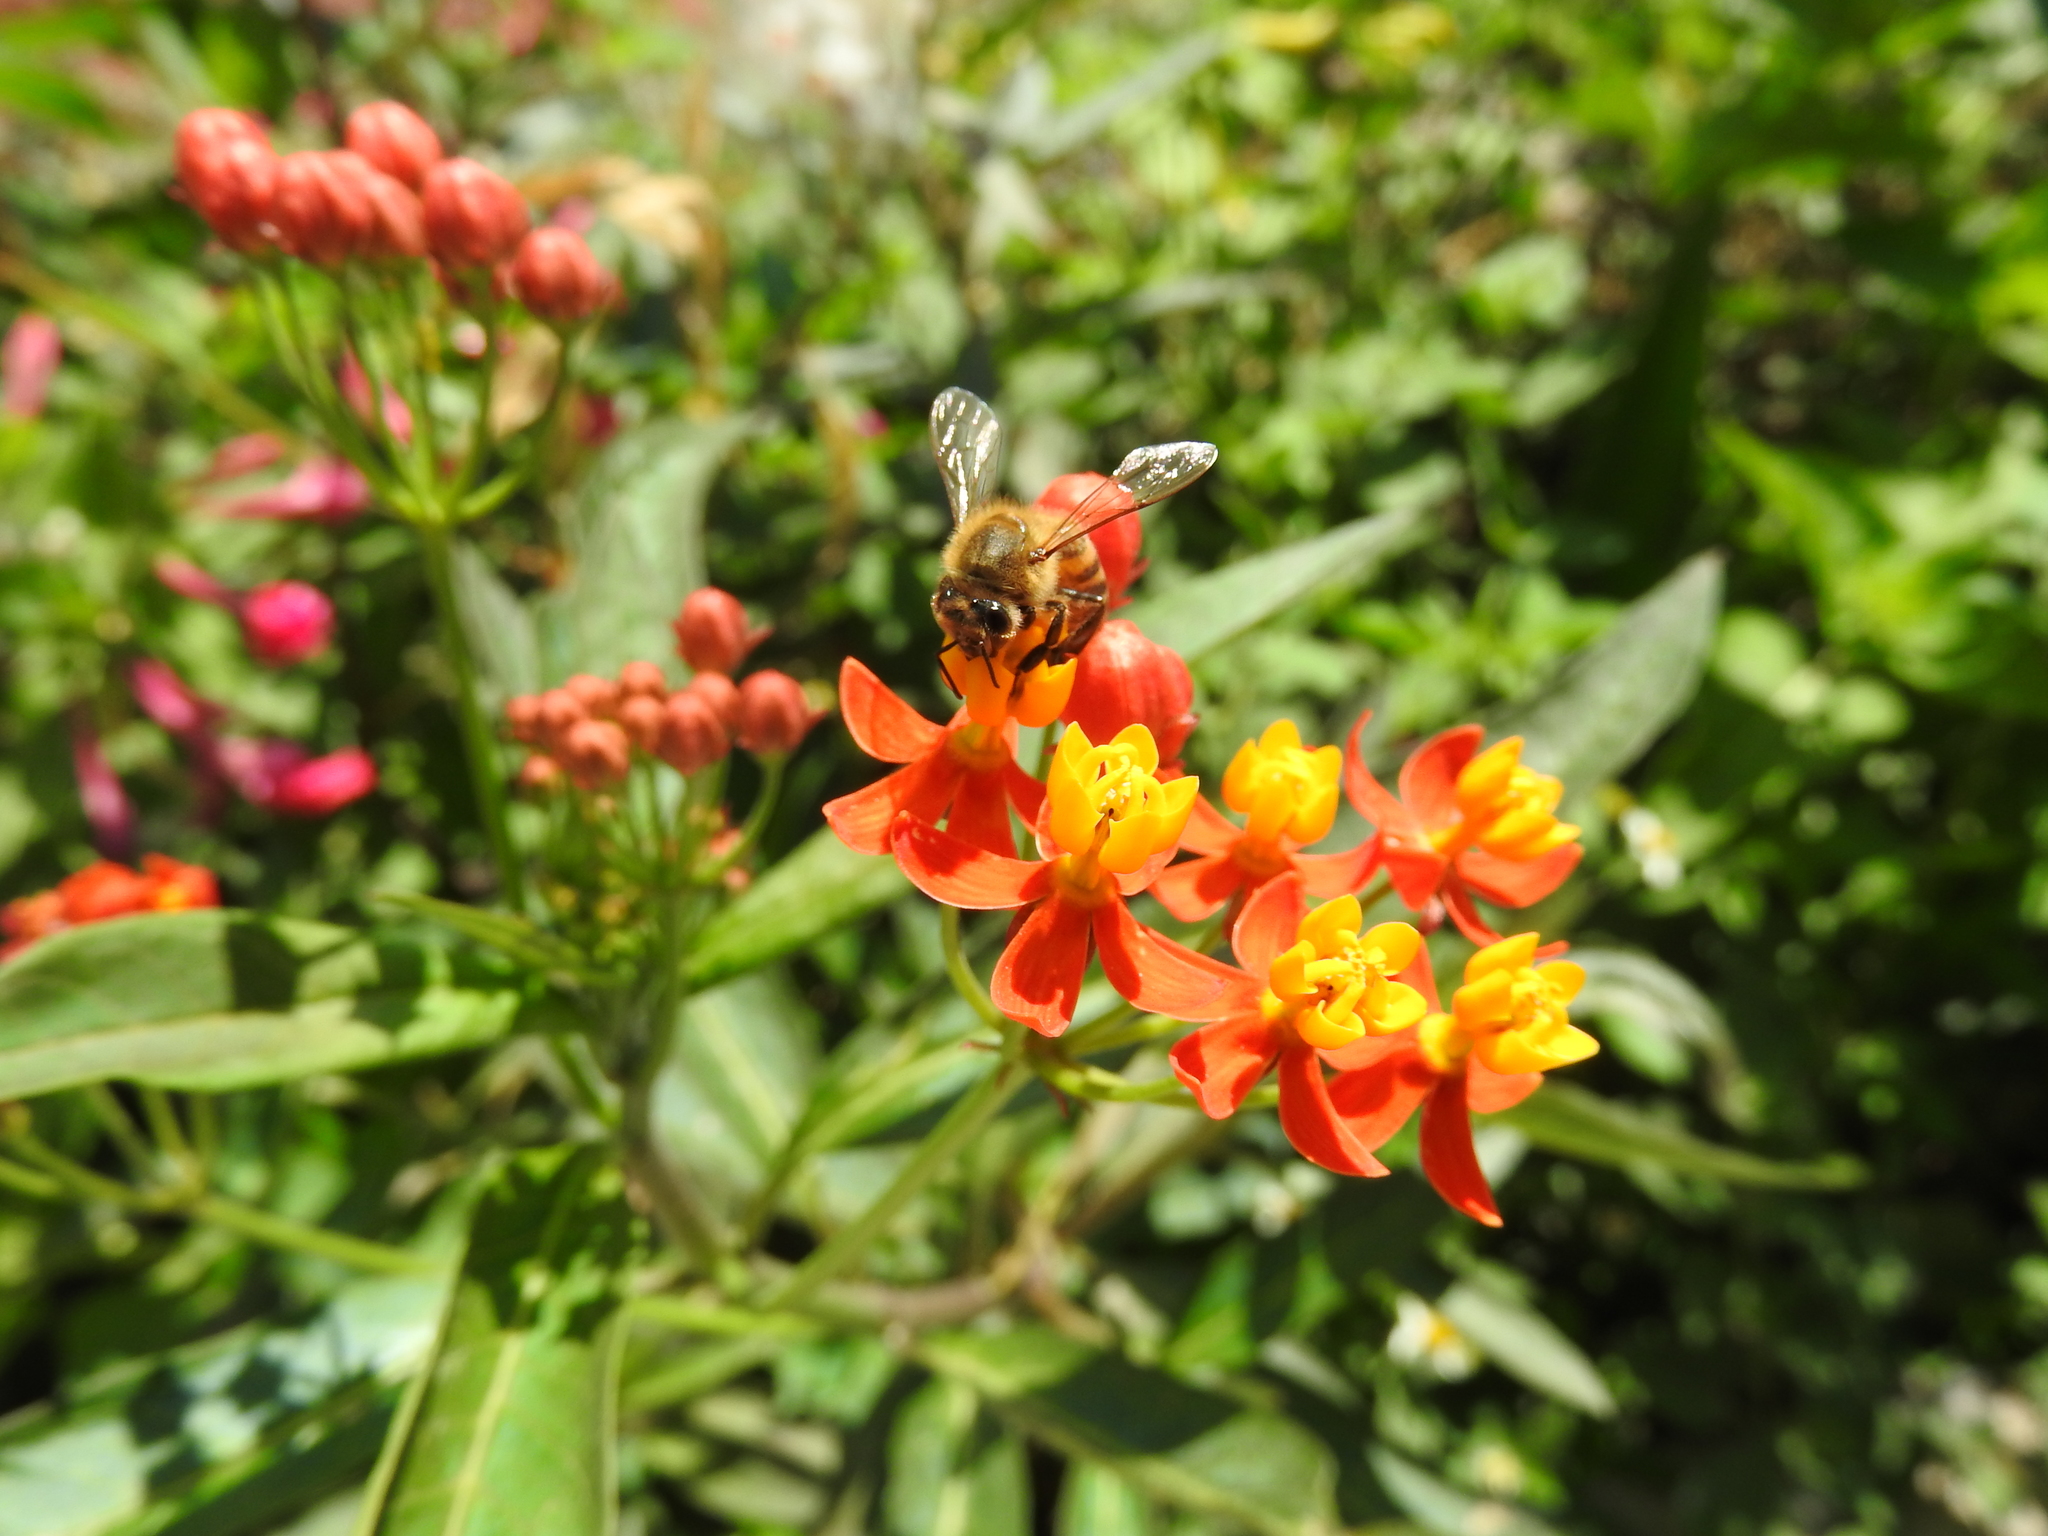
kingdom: Animalia
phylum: Arthropoda
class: Insecta
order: Hymenoptera
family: Apidae
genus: Apis
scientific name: Apis mellifera
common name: Honey bee
